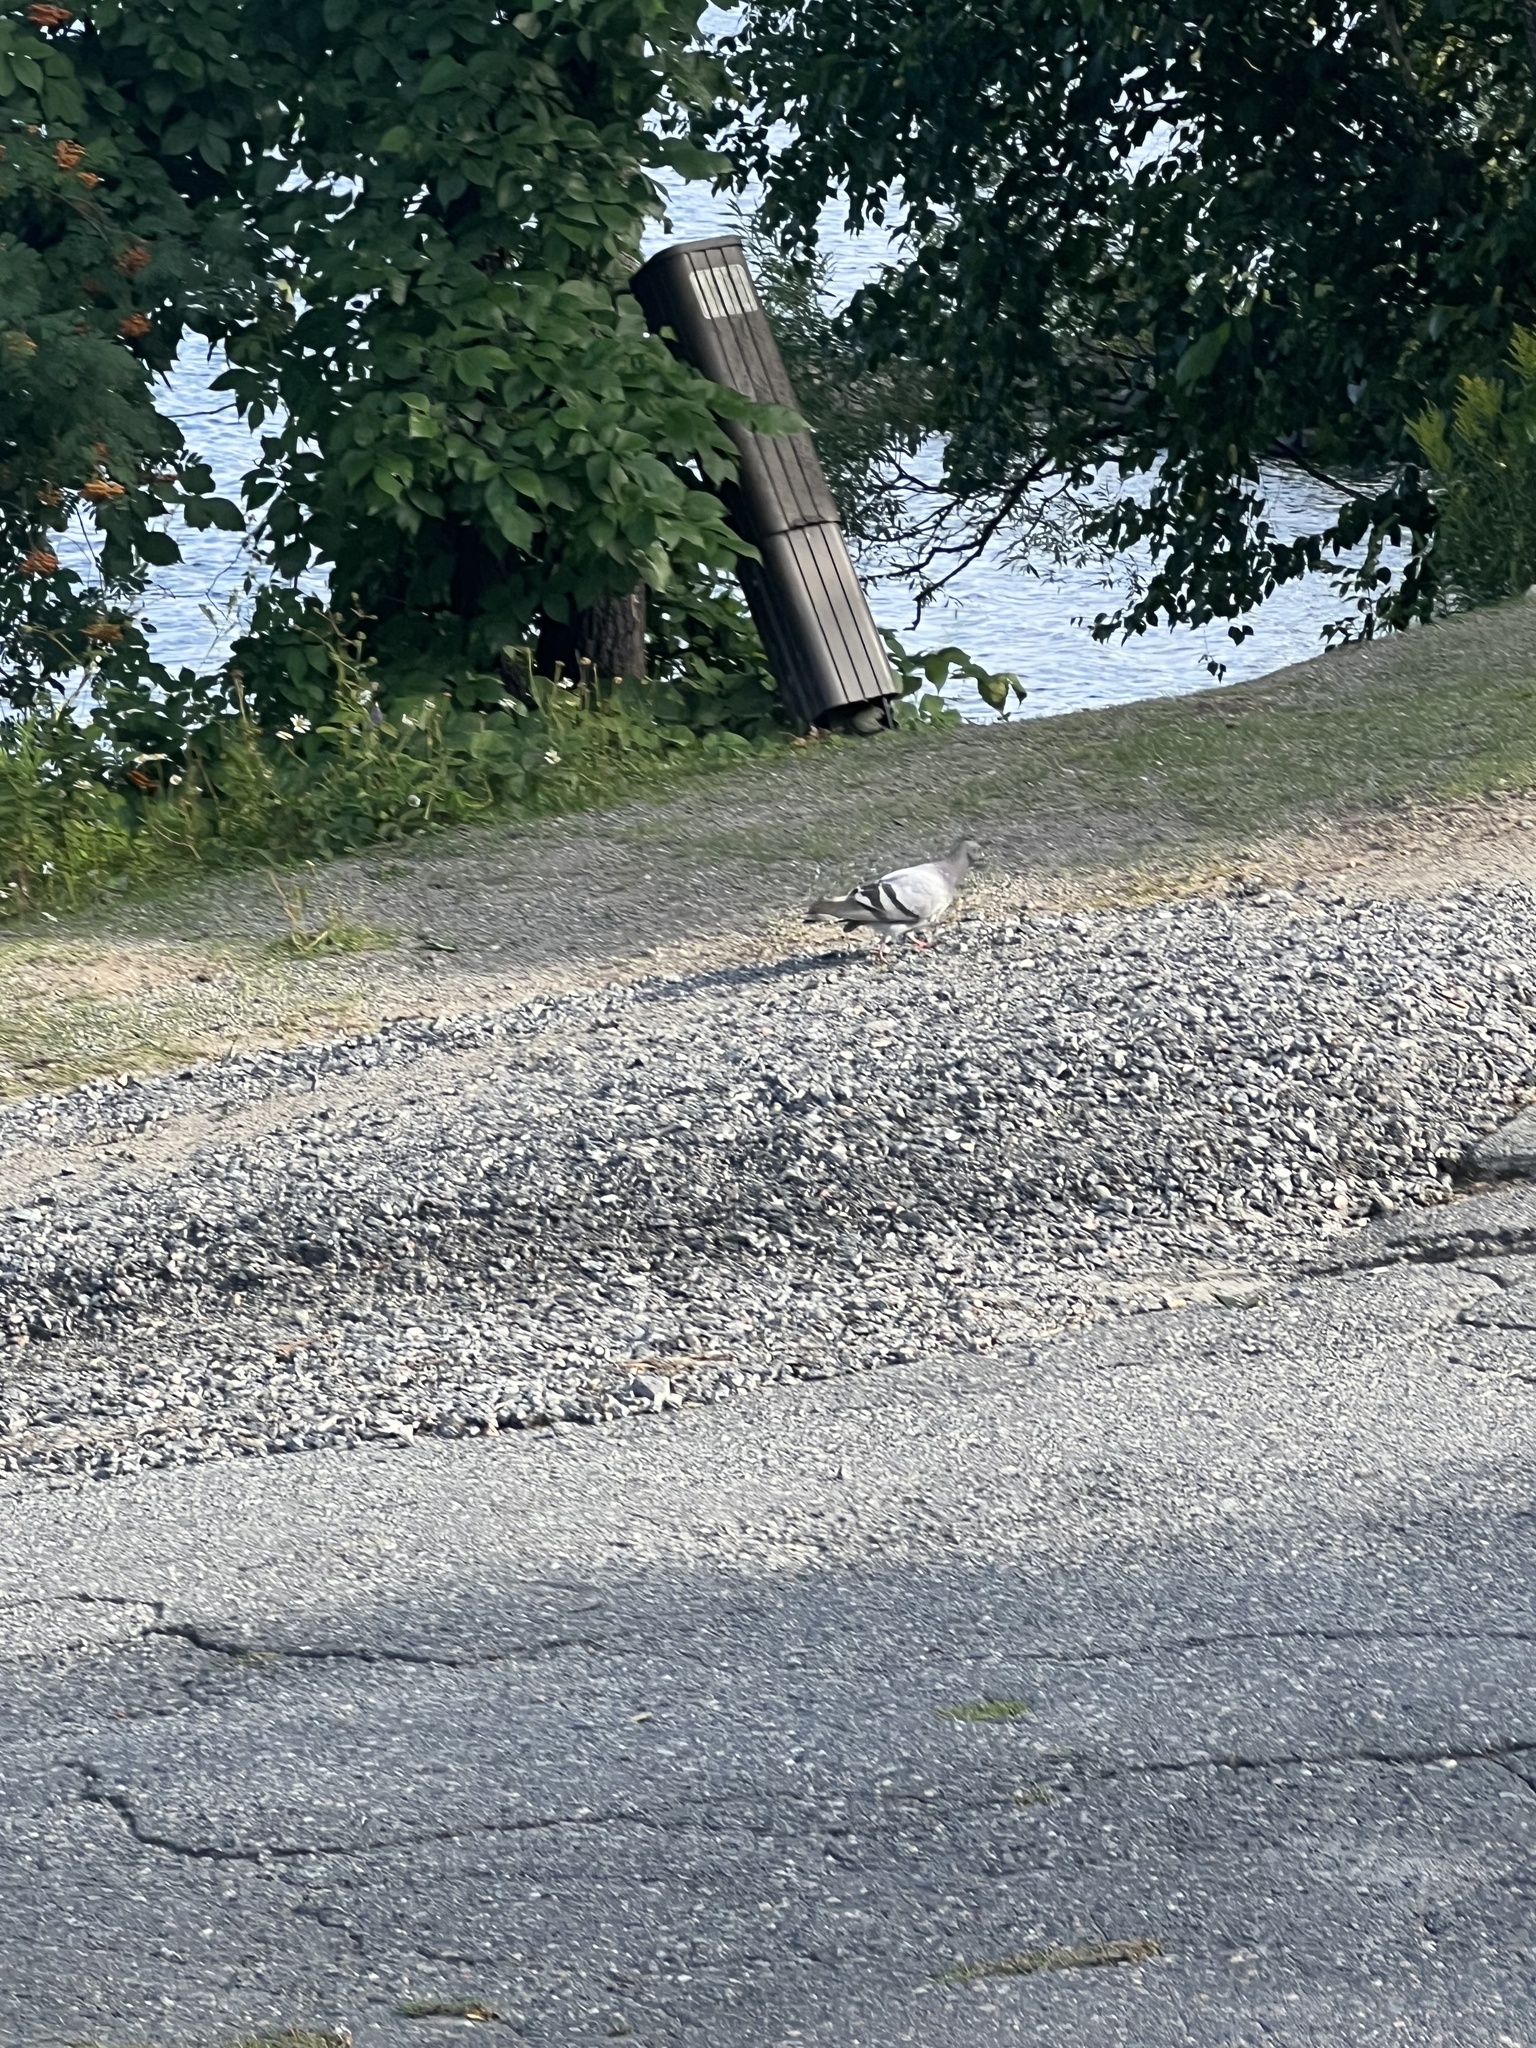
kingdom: Animalia
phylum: Chordata
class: Aves
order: Columbiformes
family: Columbidae
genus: Columba
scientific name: Columba livia
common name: Rock pigeon
